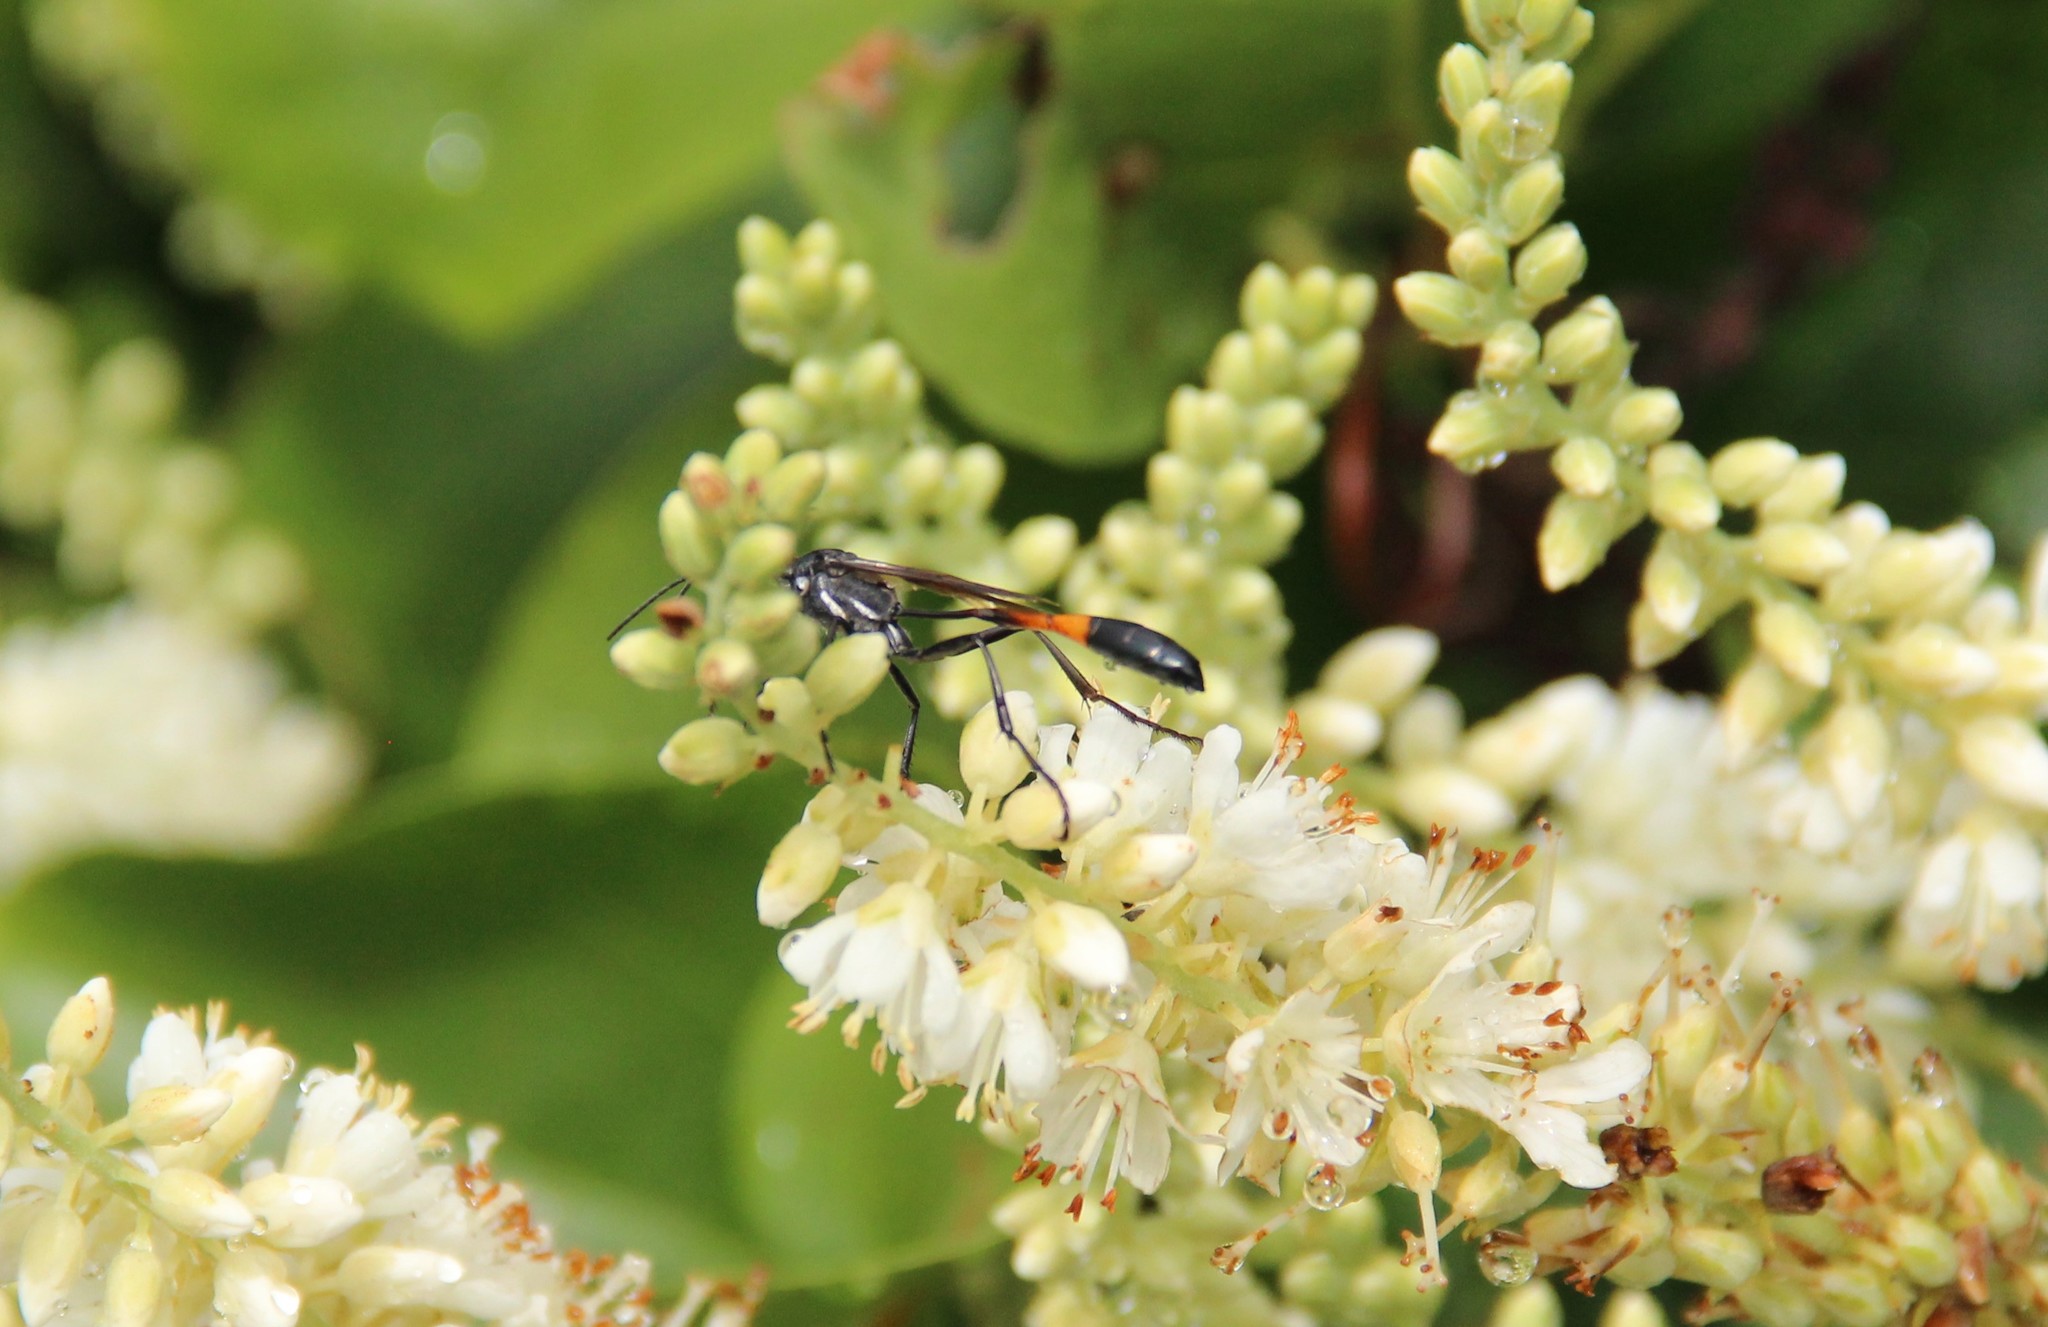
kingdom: Animalia
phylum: Arthropoda
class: Insecta
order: Hymenoptera
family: Sphecidae
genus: Ammophila
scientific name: Ammophila procera
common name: Common thread-waisted wasp
